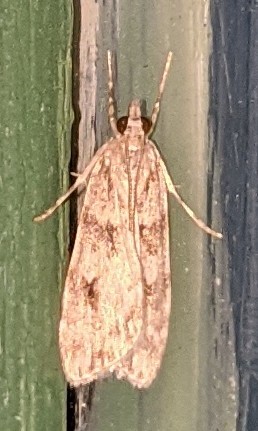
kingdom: Animalia
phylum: Arthropoda
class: Insecta
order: Lepidoptera
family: Crambidae
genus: Scoparia
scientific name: Scoparia biplagialis
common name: Double-striped scoparia moth
